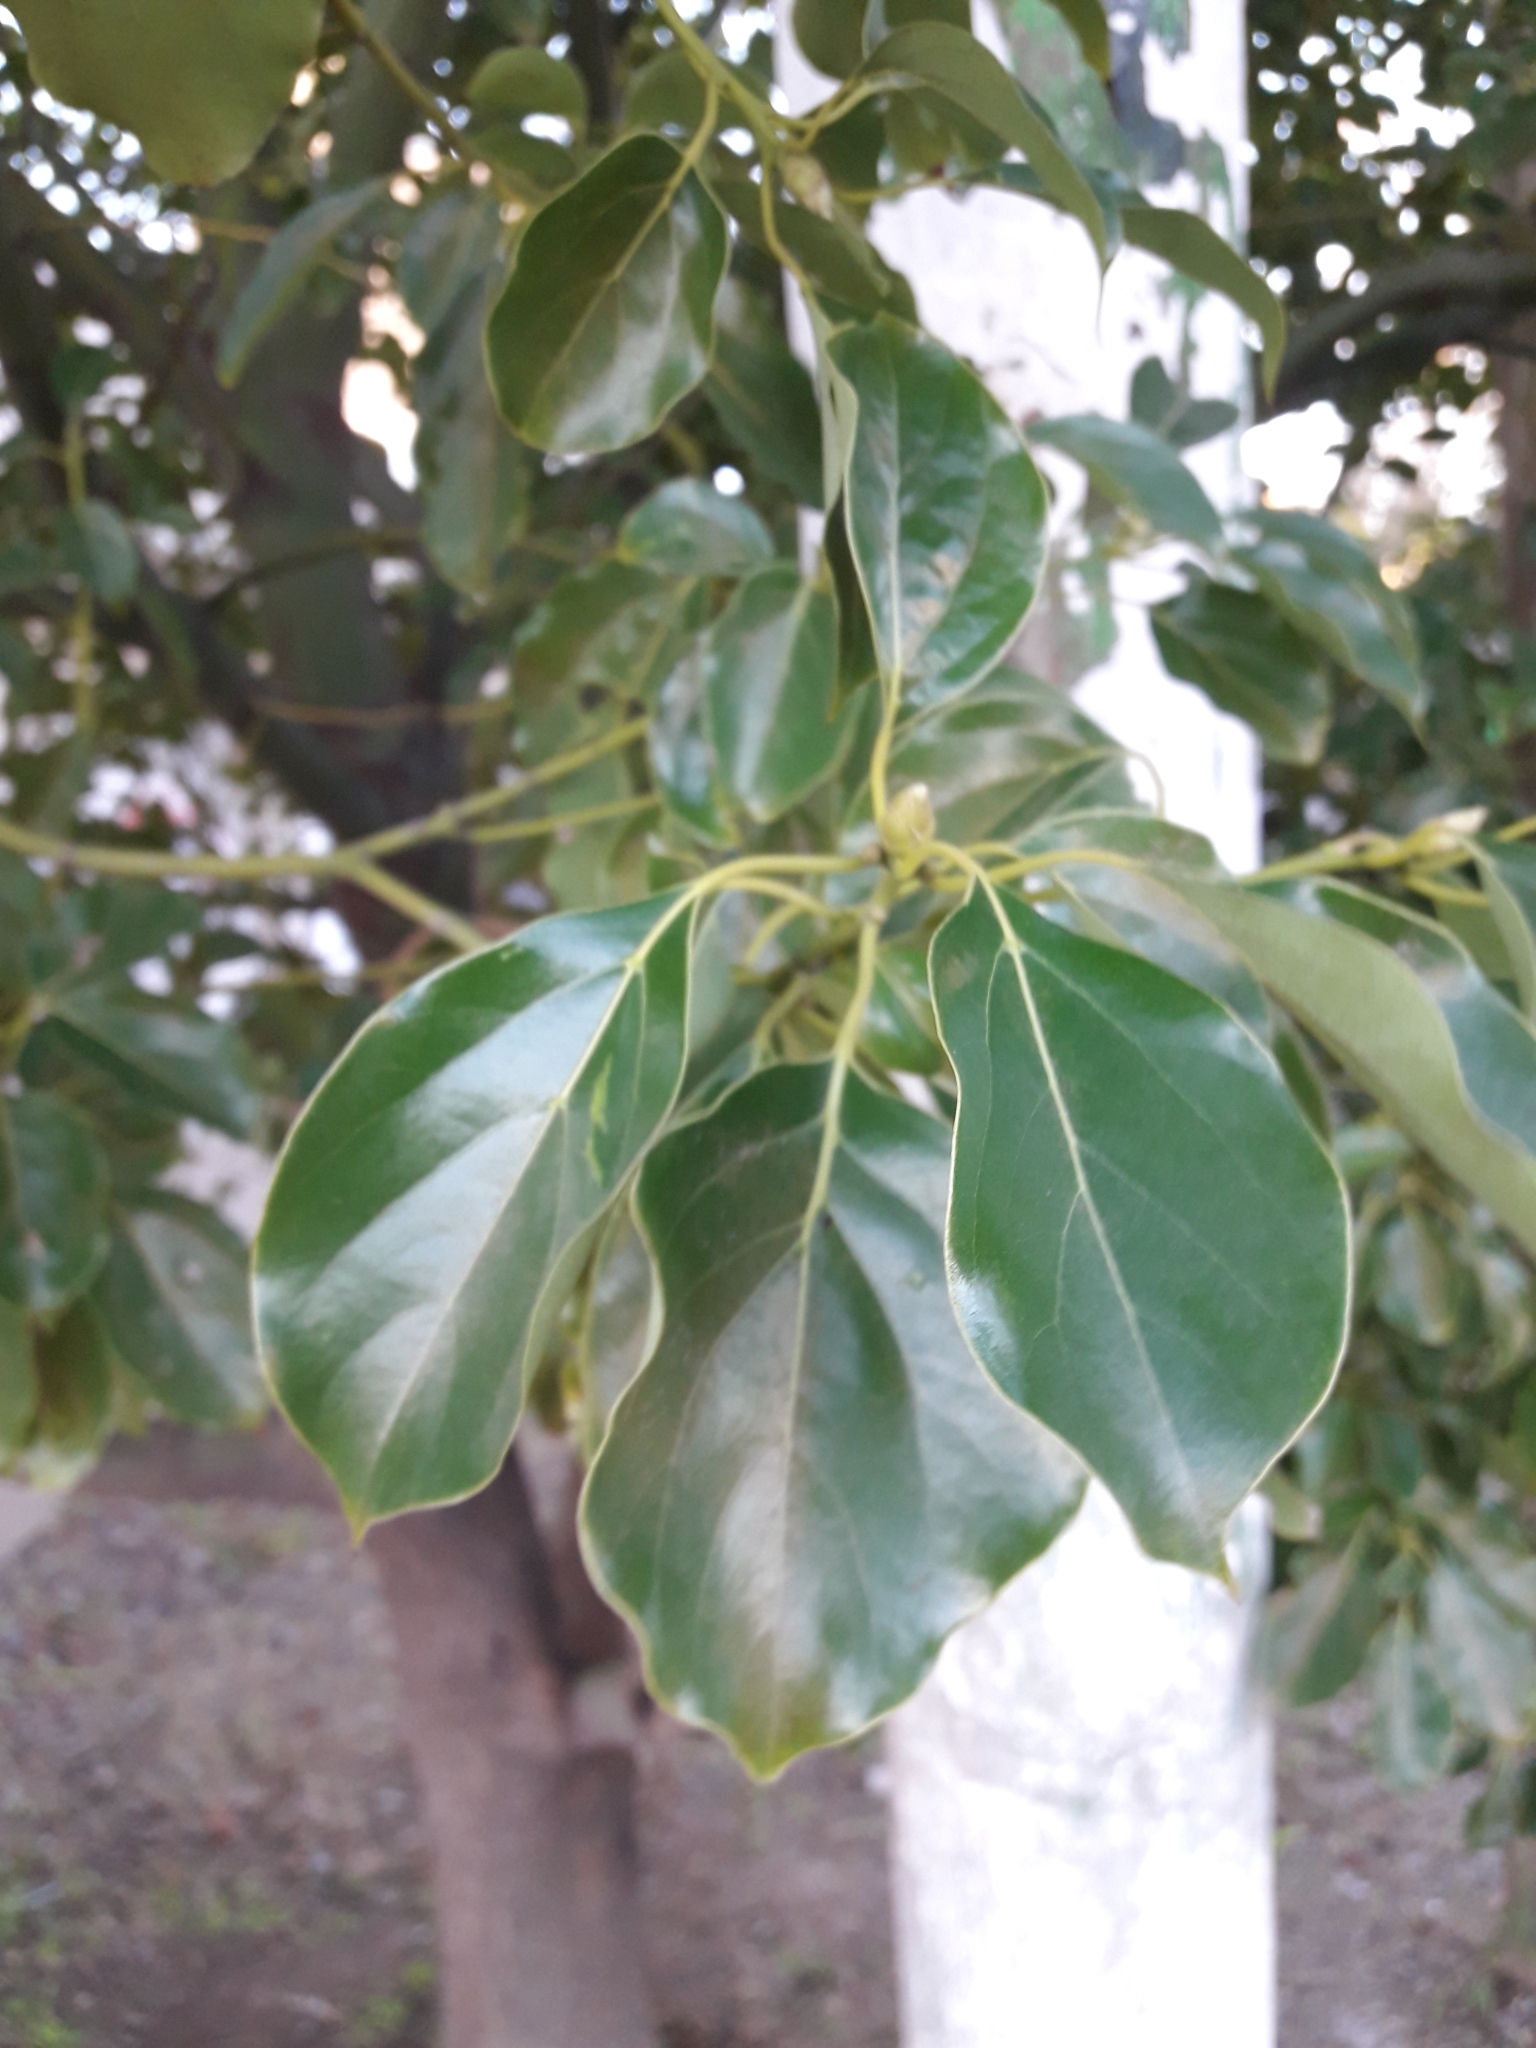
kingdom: Plantae
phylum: Tracheophyta
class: Magnoliopsida
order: Laurales
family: Lauraceae
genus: Cinnamomum
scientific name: Cinnamomum camphora
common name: Camphortree
